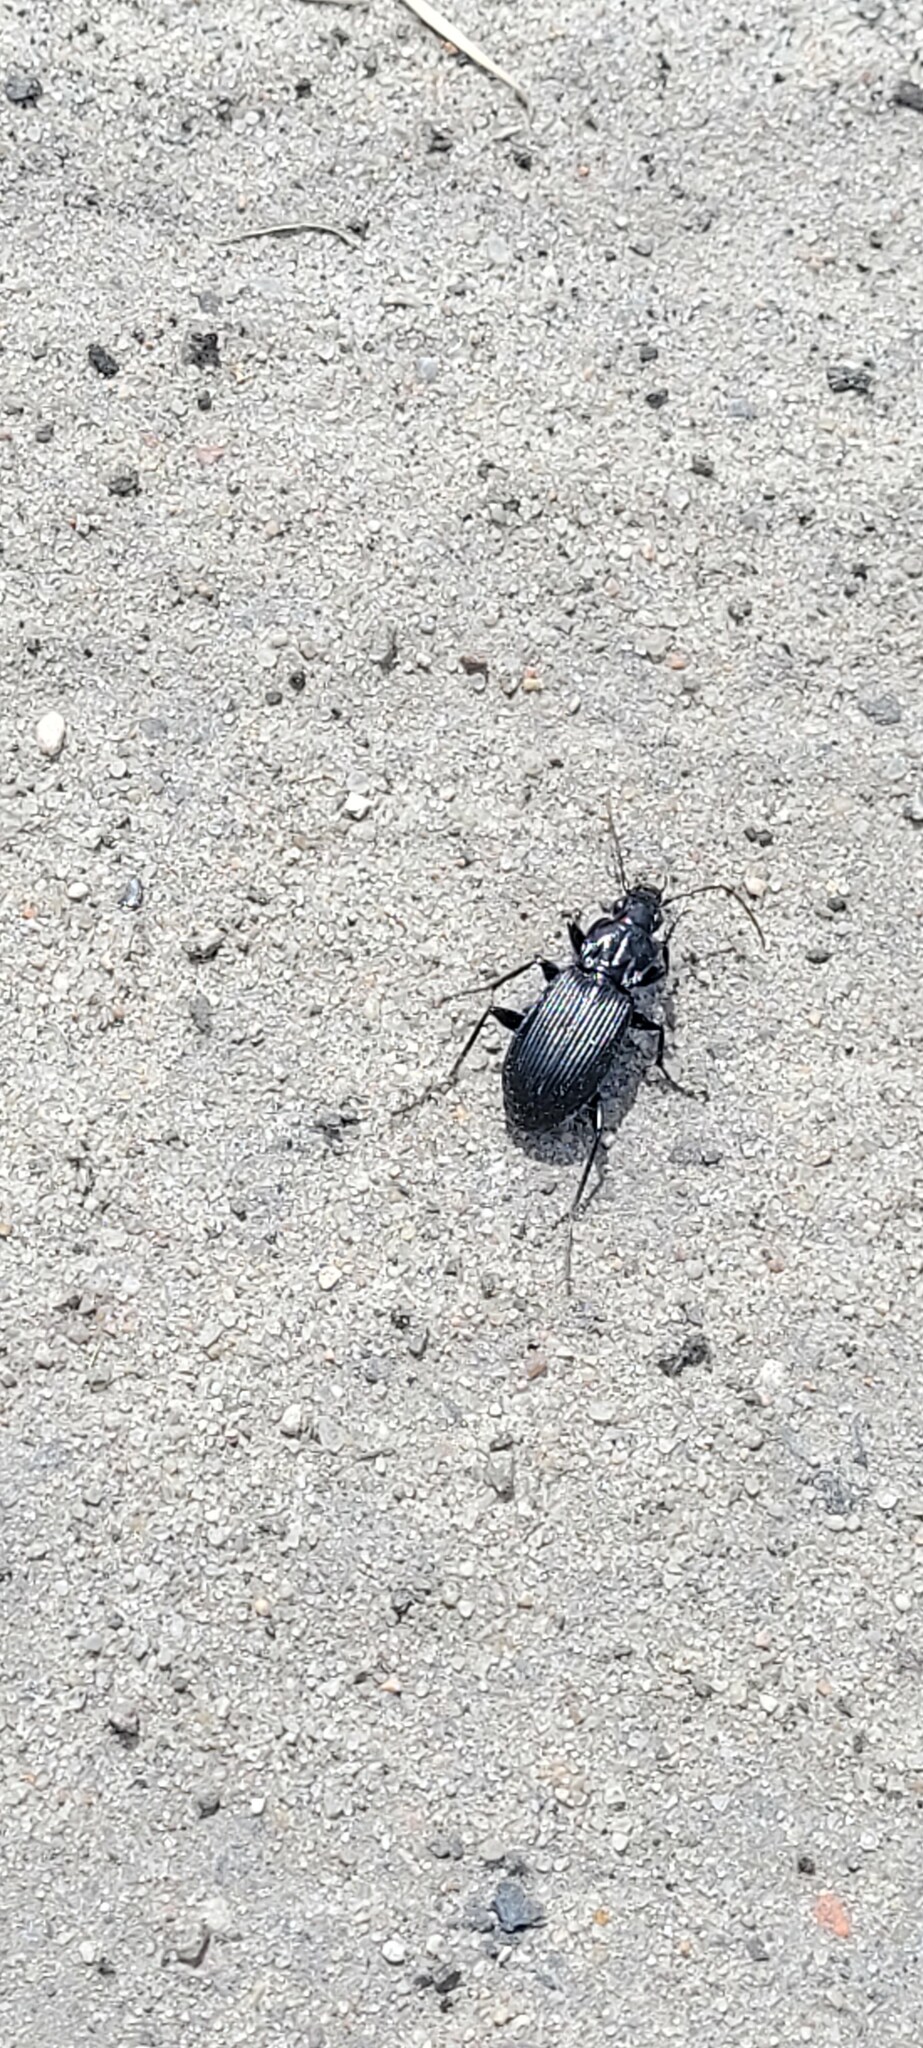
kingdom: Animalia
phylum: Arthropoda
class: Insecta
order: Coleoptera
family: Carabidae
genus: Pterostichus
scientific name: Pterostichus niger
